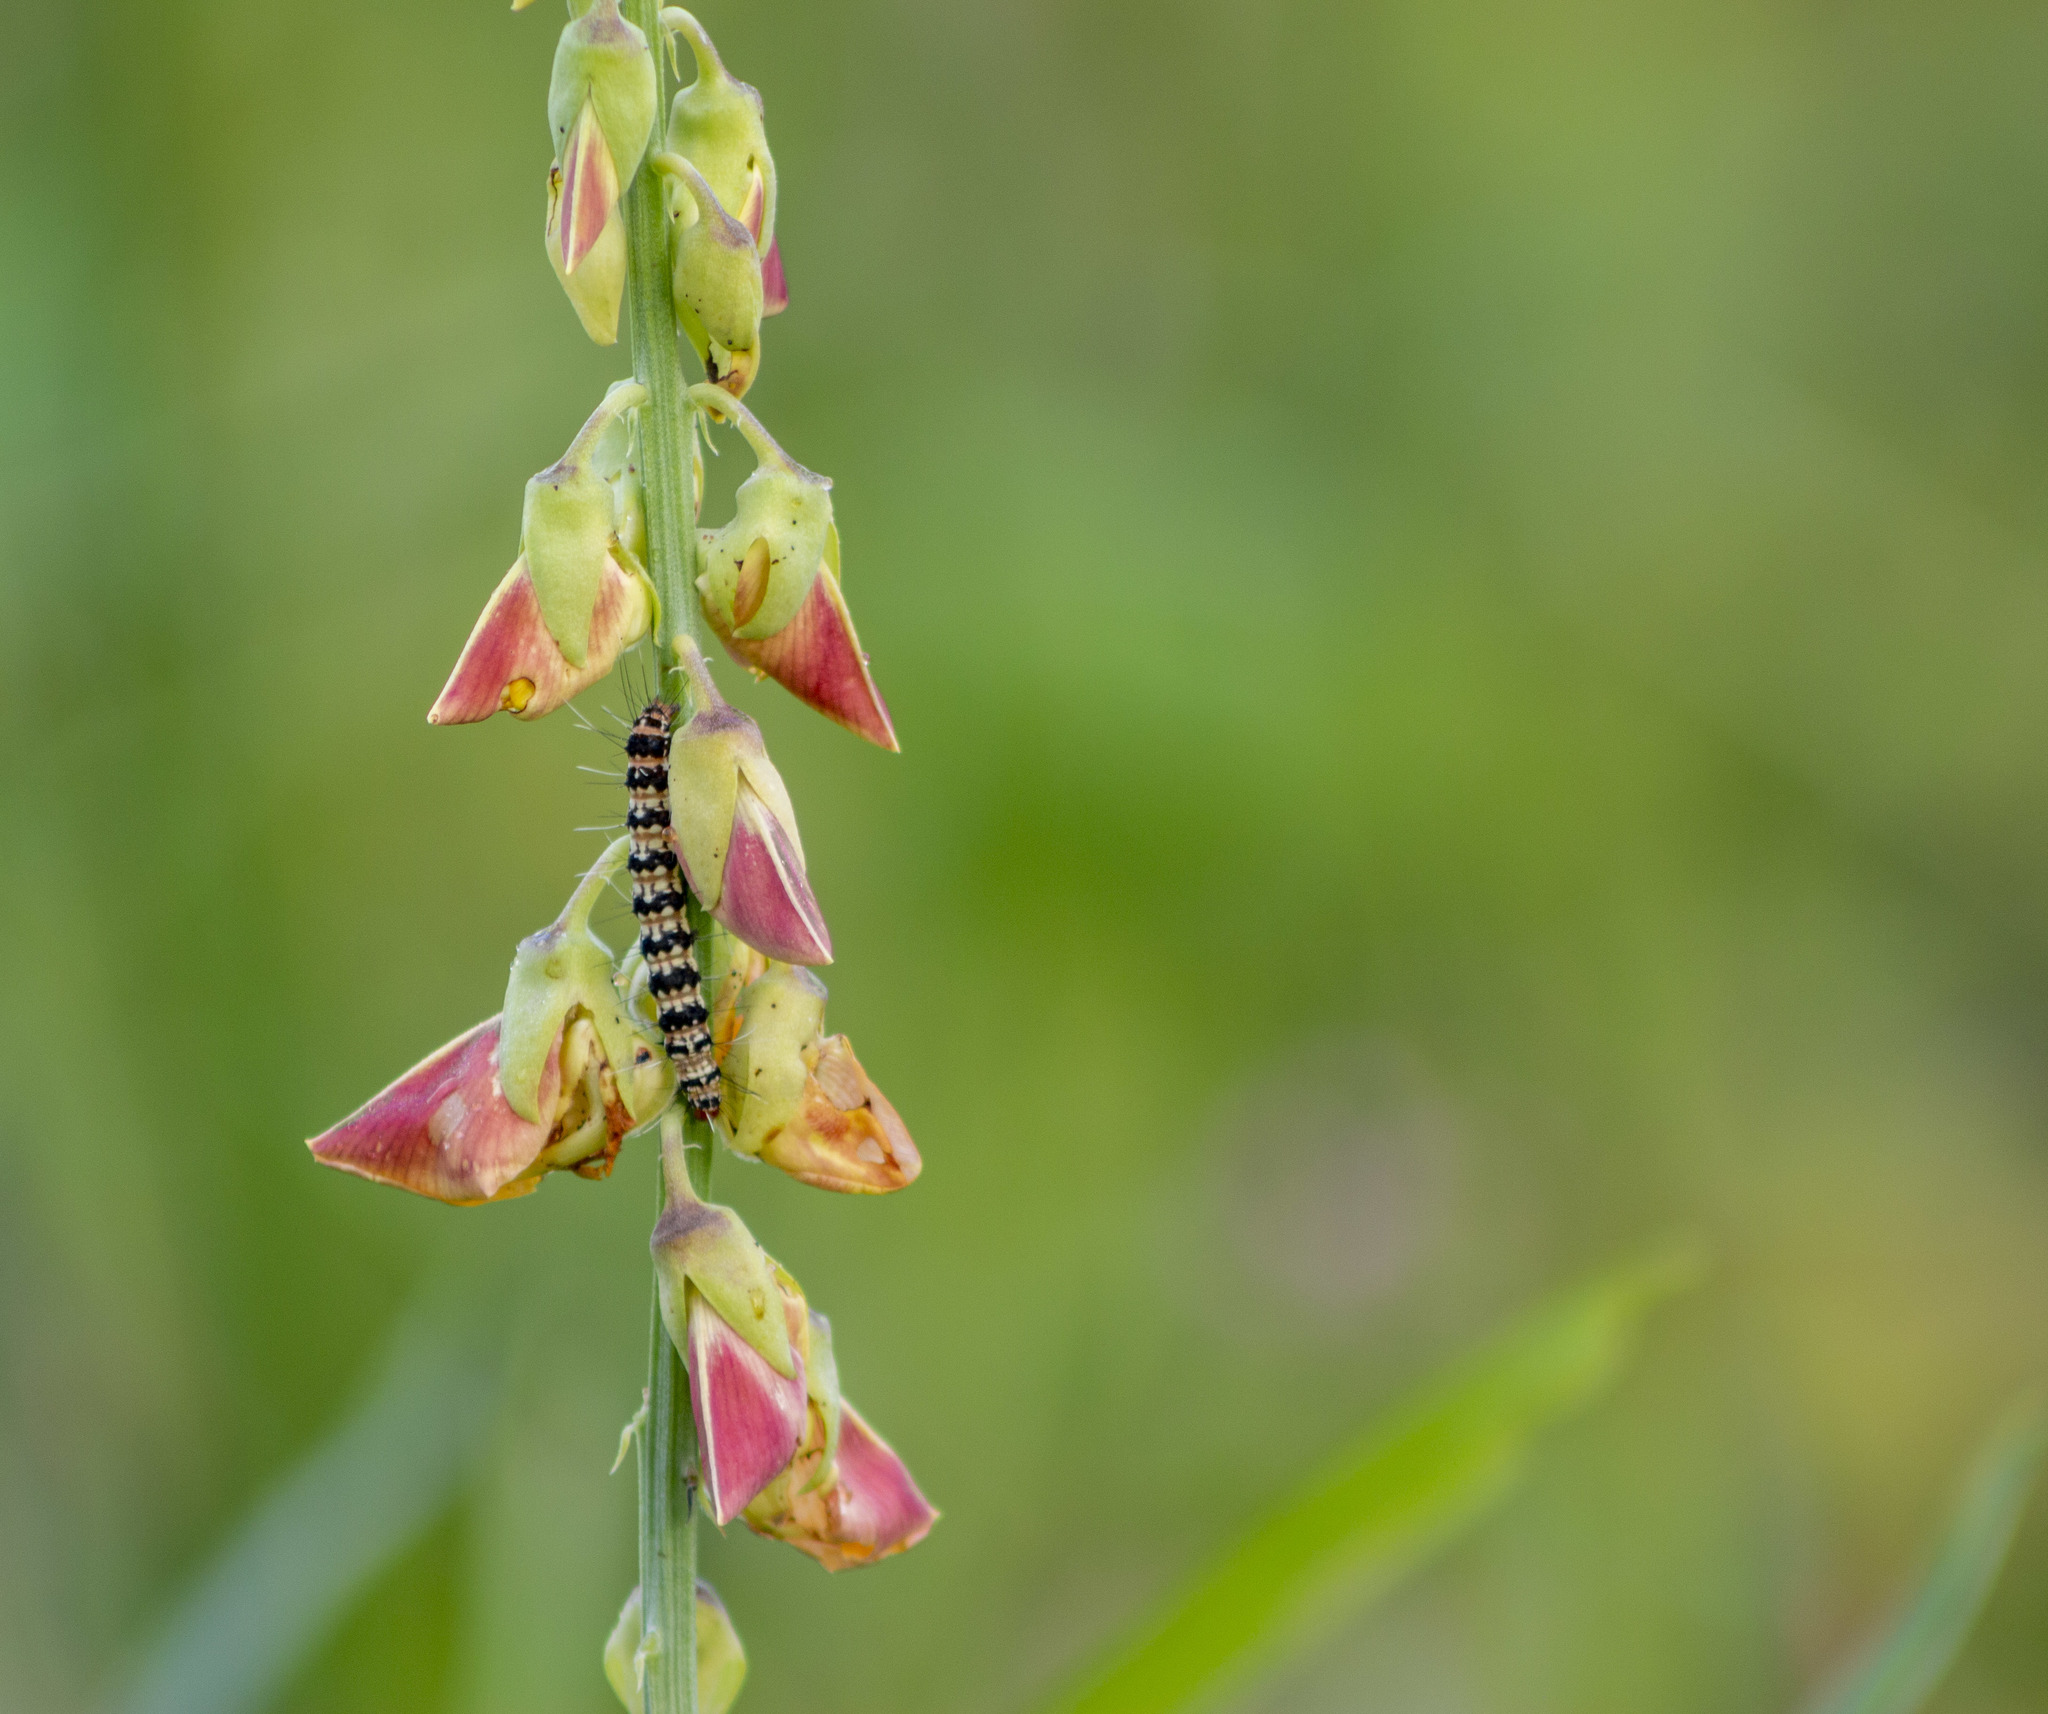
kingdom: Animalia
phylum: Arthropoda
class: Insecta
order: Lepidoptera
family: Erebidae
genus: Utetheisa
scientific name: Utetheisa ornatrix
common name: Beautiful utetheisa
